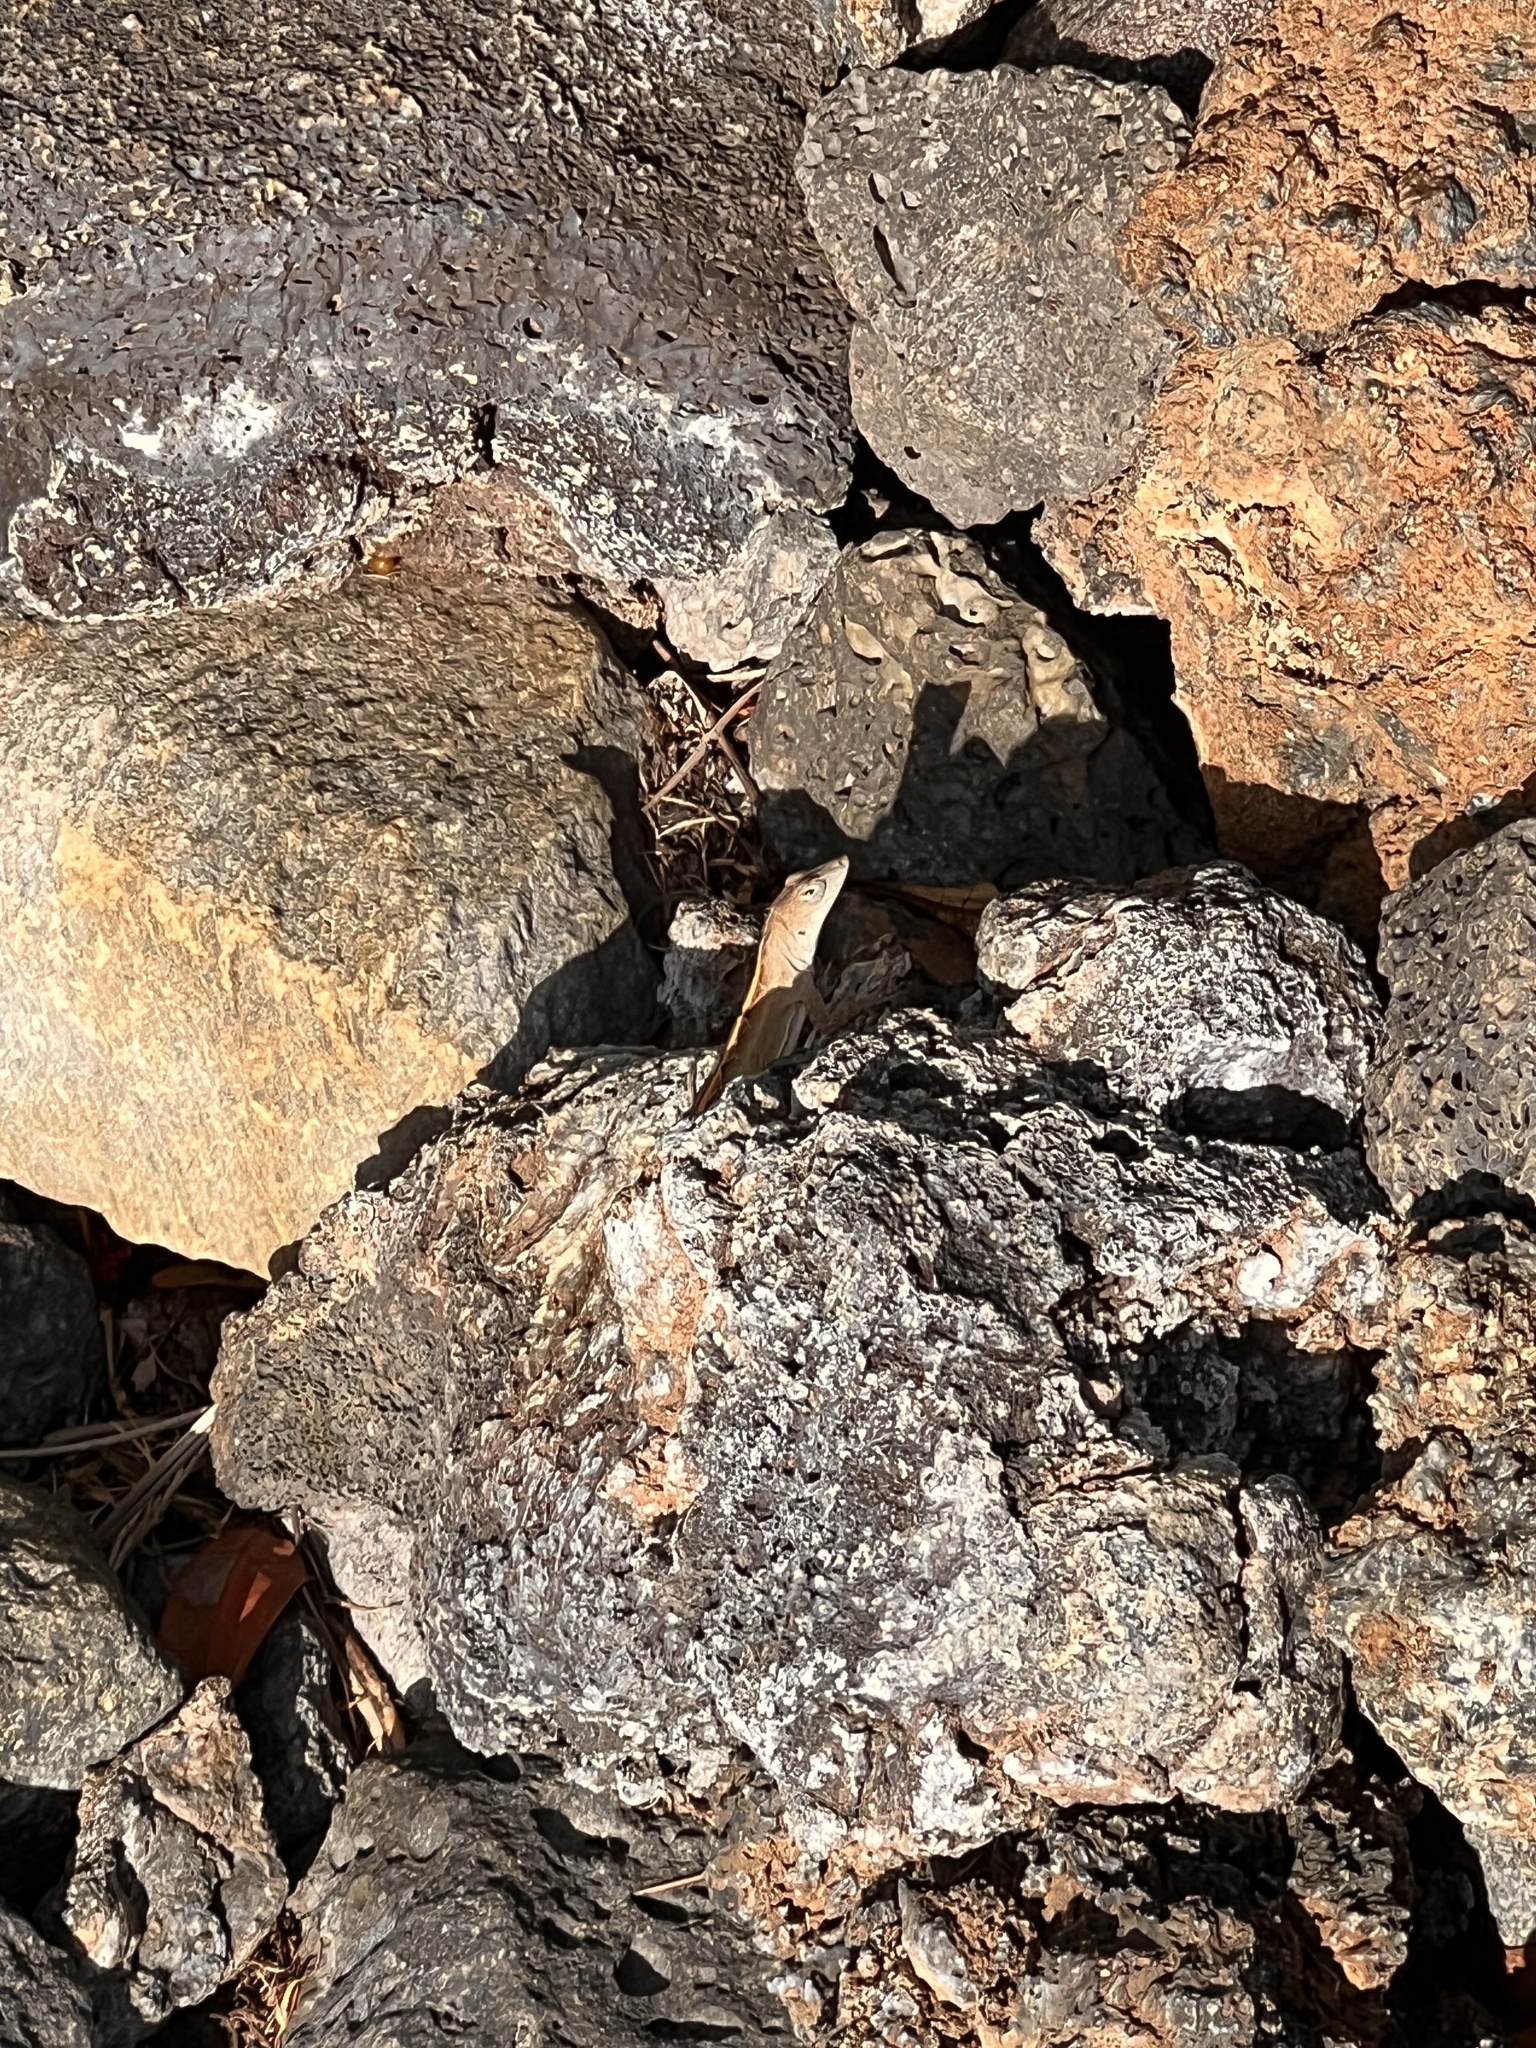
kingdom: Animalia
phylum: Chordata
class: Squamata
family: Dactyloidae
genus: Anolis
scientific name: Anolis sagrei
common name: Brown anole
